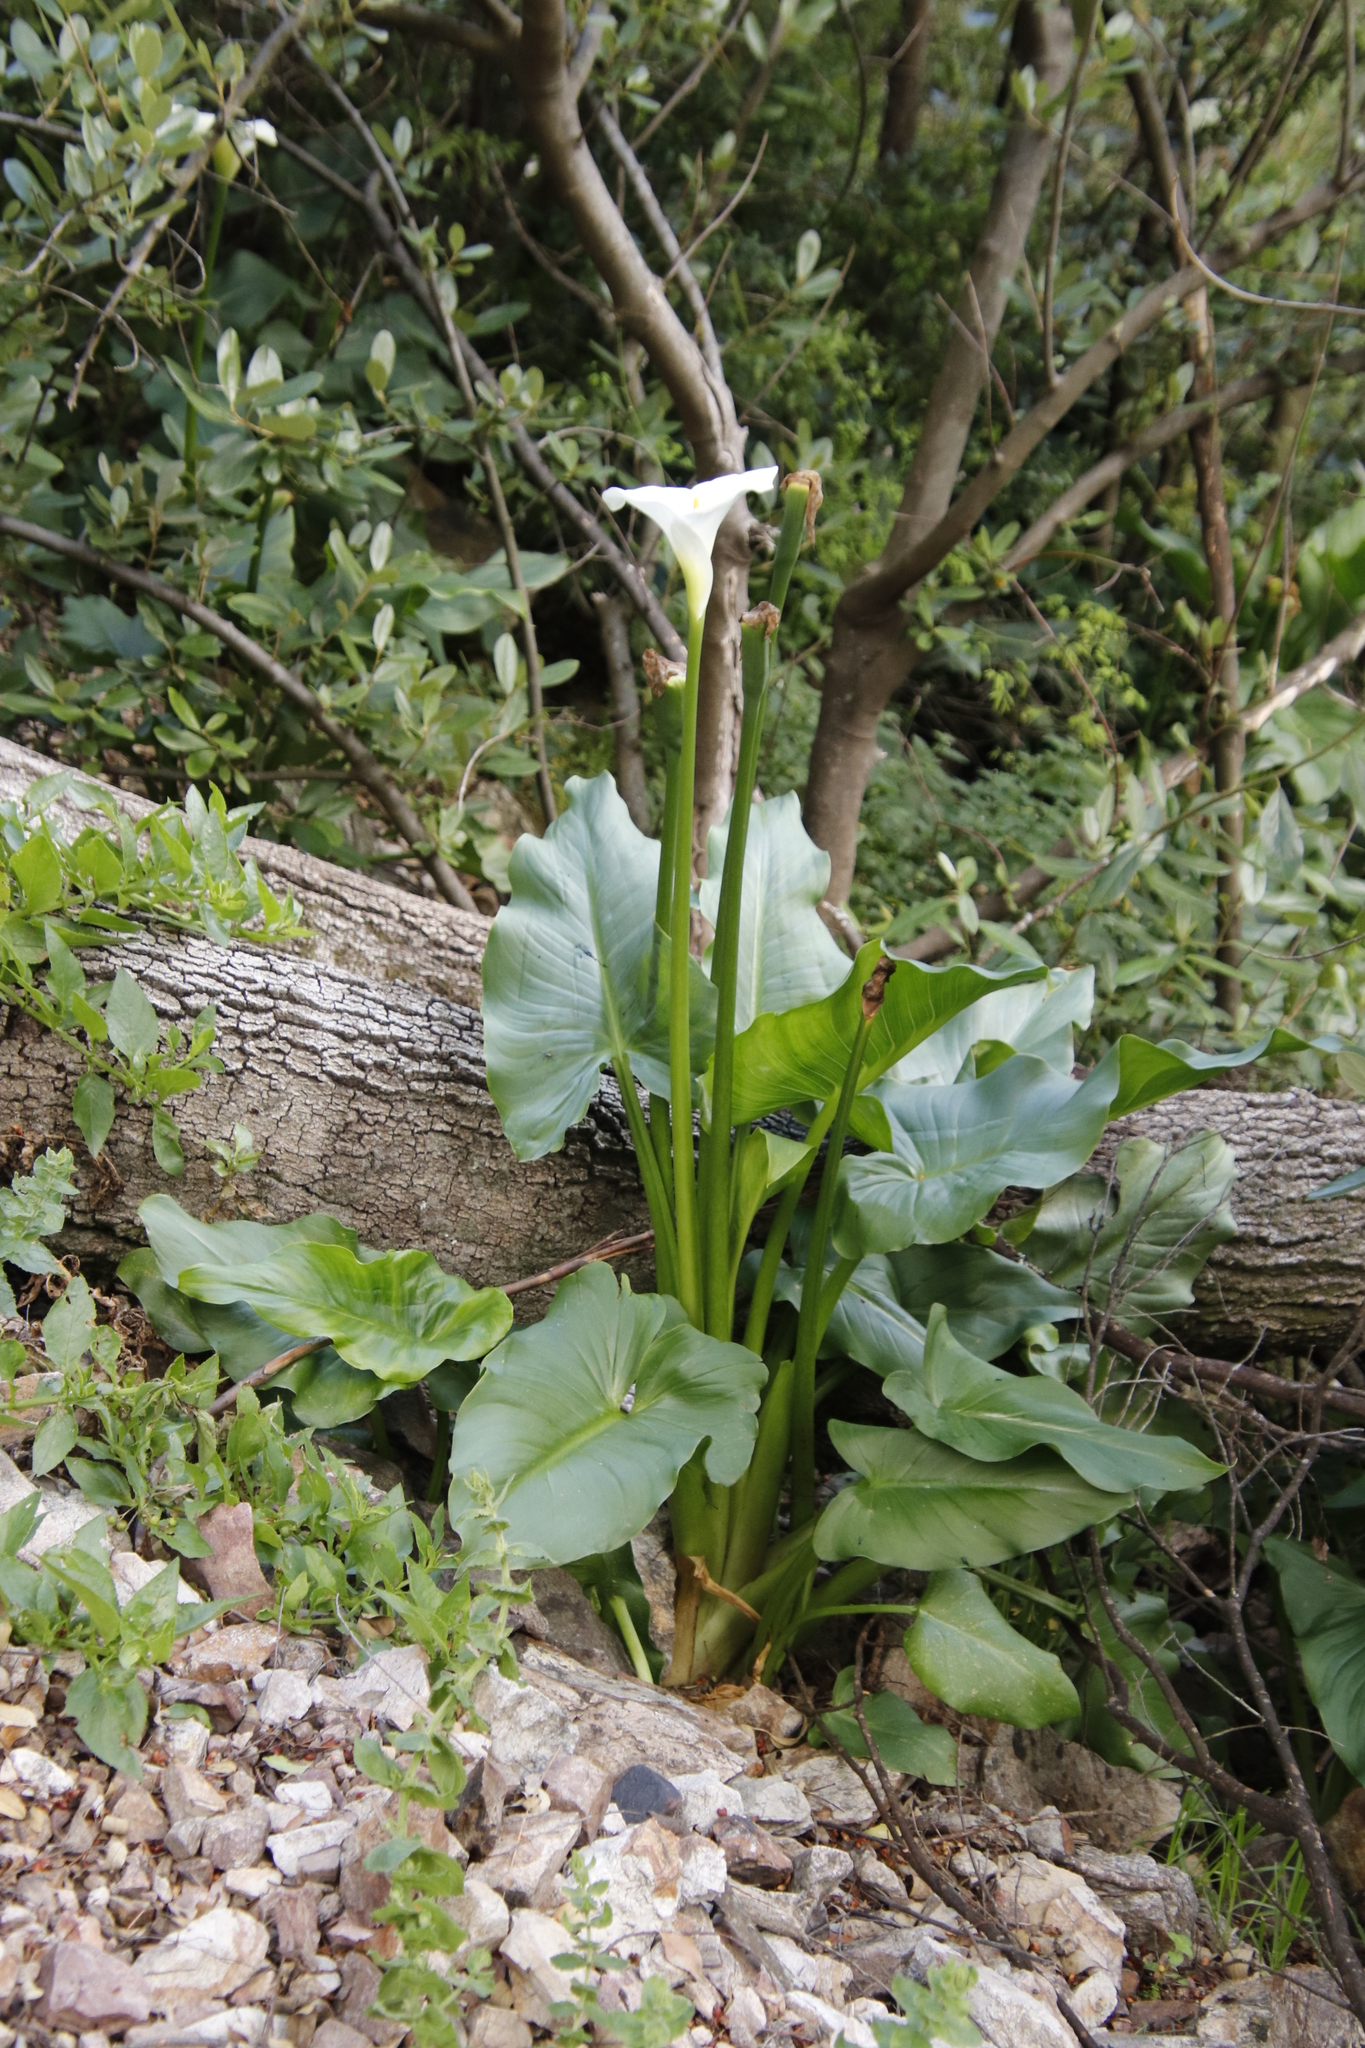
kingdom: Plantae
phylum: Tracheophyta
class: Liliopsida
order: Alismatales
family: Araceae
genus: Zantedeschia
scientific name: Zantedeschia aethiopica
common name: Altar-lily
